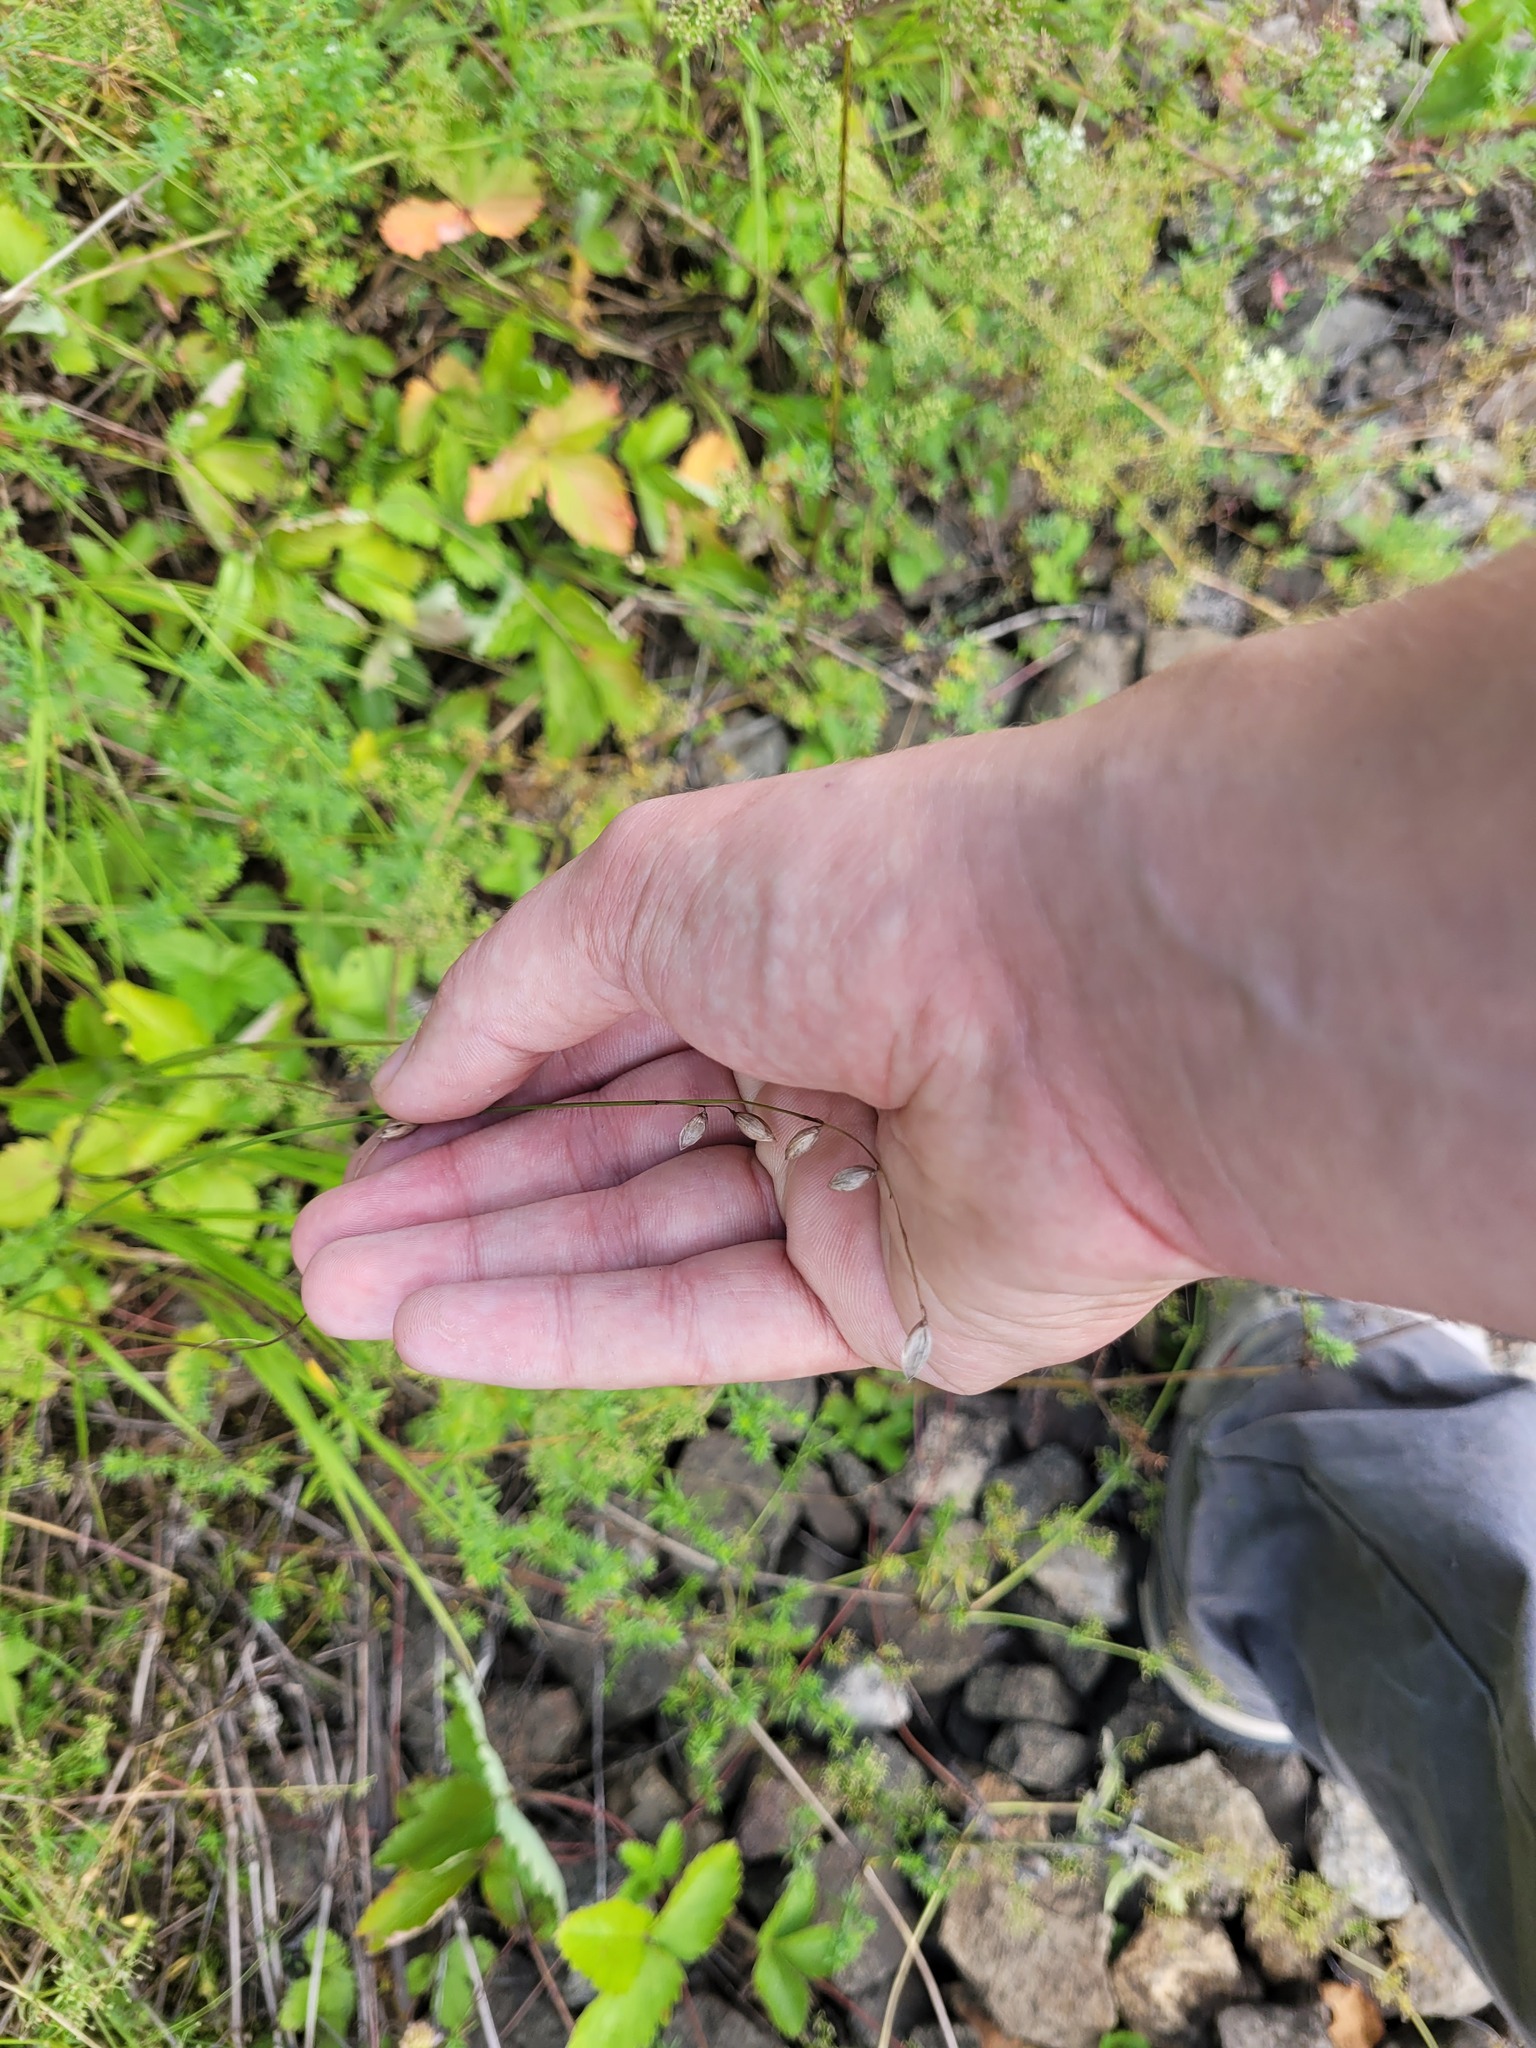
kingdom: Plantae
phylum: Tracheophyta
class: Liliopsida
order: Poales
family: Poaceae
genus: Melica
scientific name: Melica nutans
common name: Mountain melick
